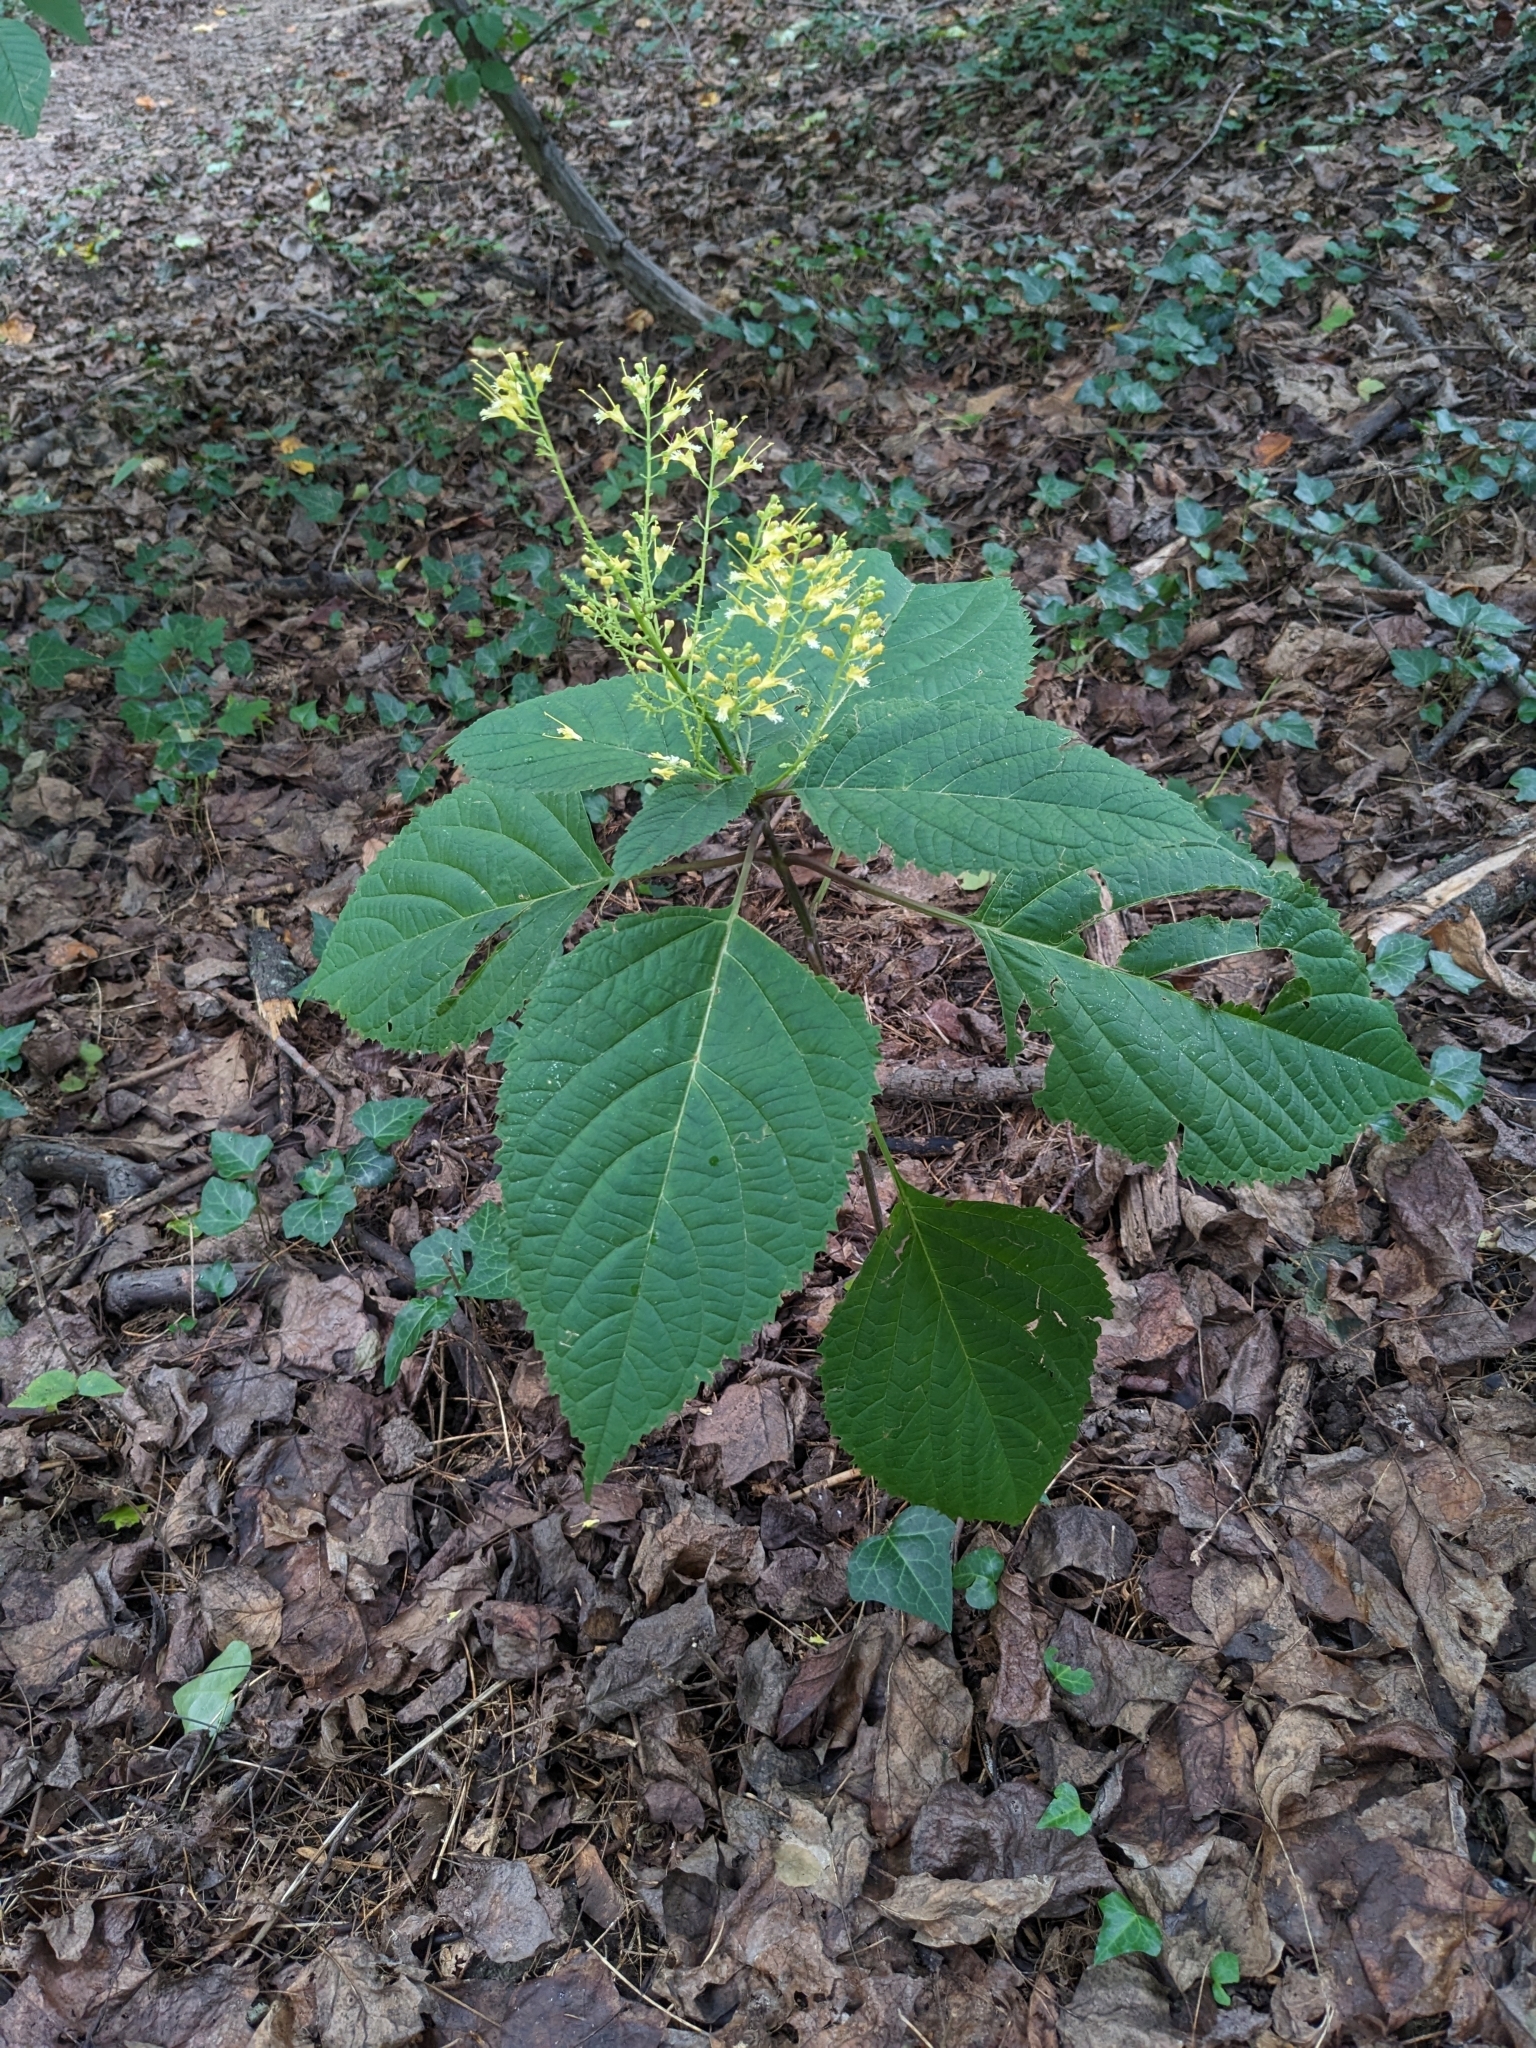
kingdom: Plantae
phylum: Tracheophyta
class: Magnoliopsida
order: Lamiales
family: Lamiaceae
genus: Collinsonia
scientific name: Collinsonia canadensis
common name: Northern horsebalm
